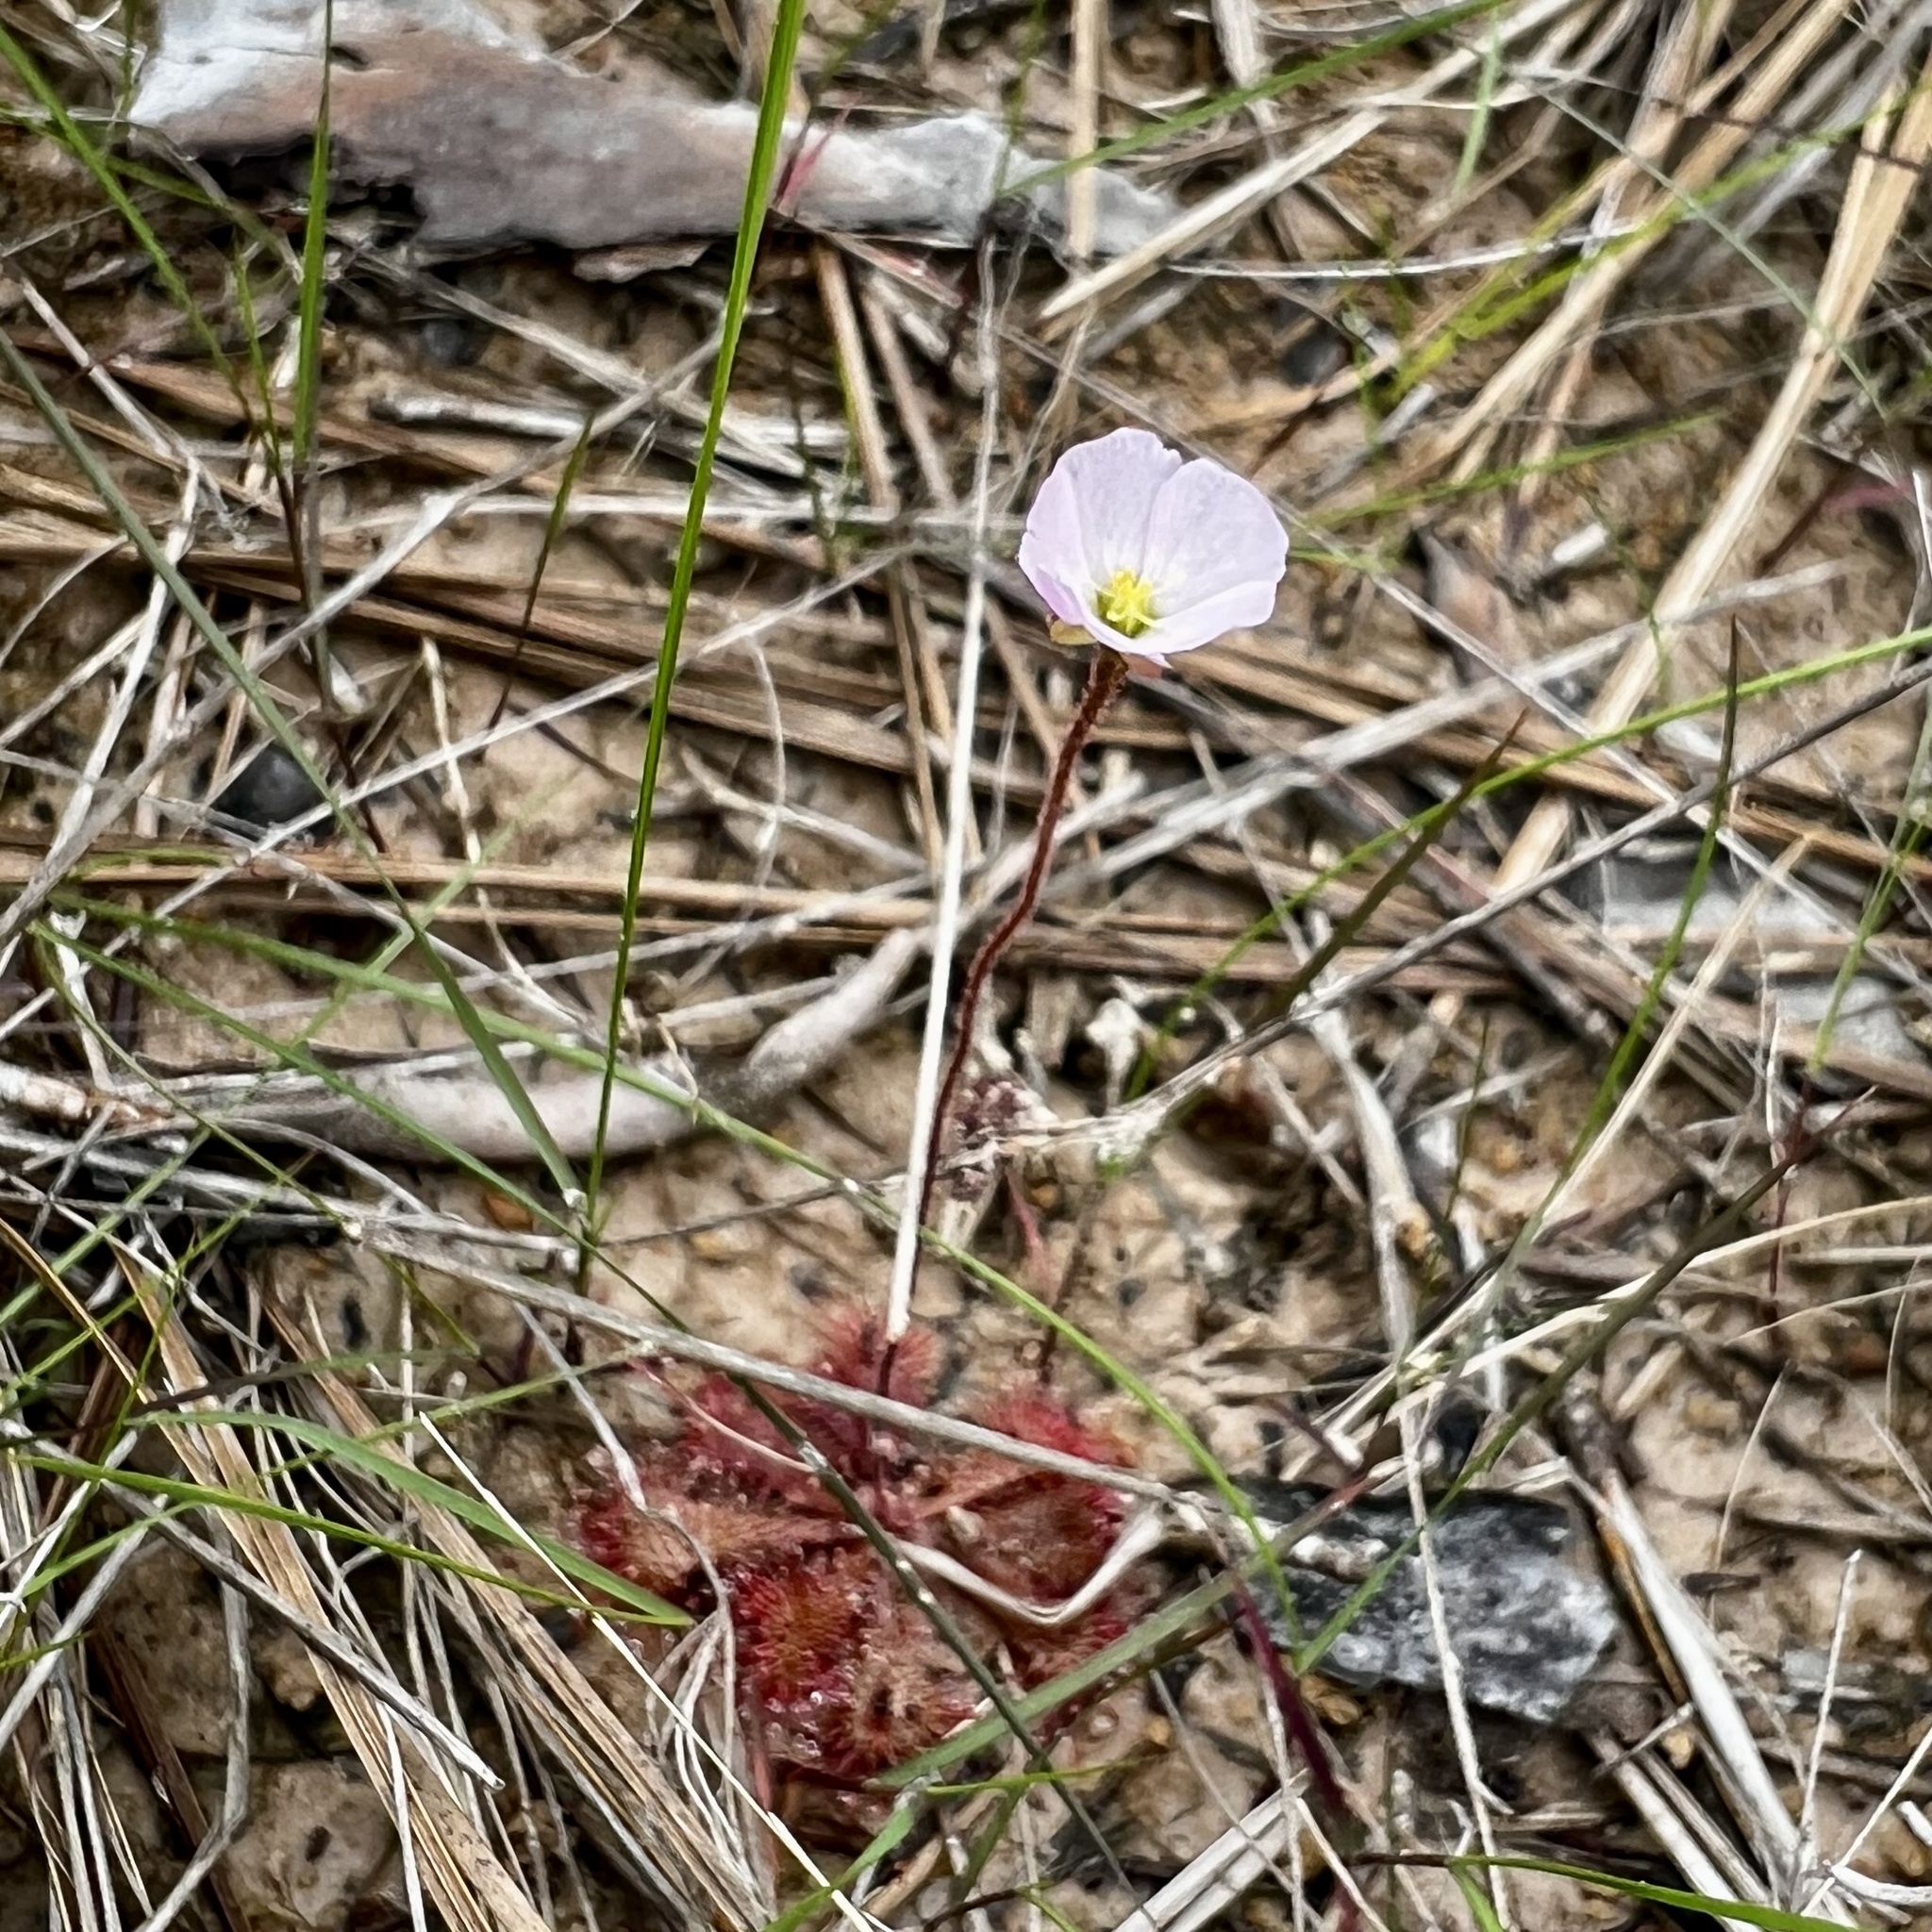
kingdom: Plantae
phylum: Tracheophyta
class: Magnoliopsida
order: Caryophyllales
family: Droseraceae
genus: Drosera
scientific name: Drosera brevifolia
